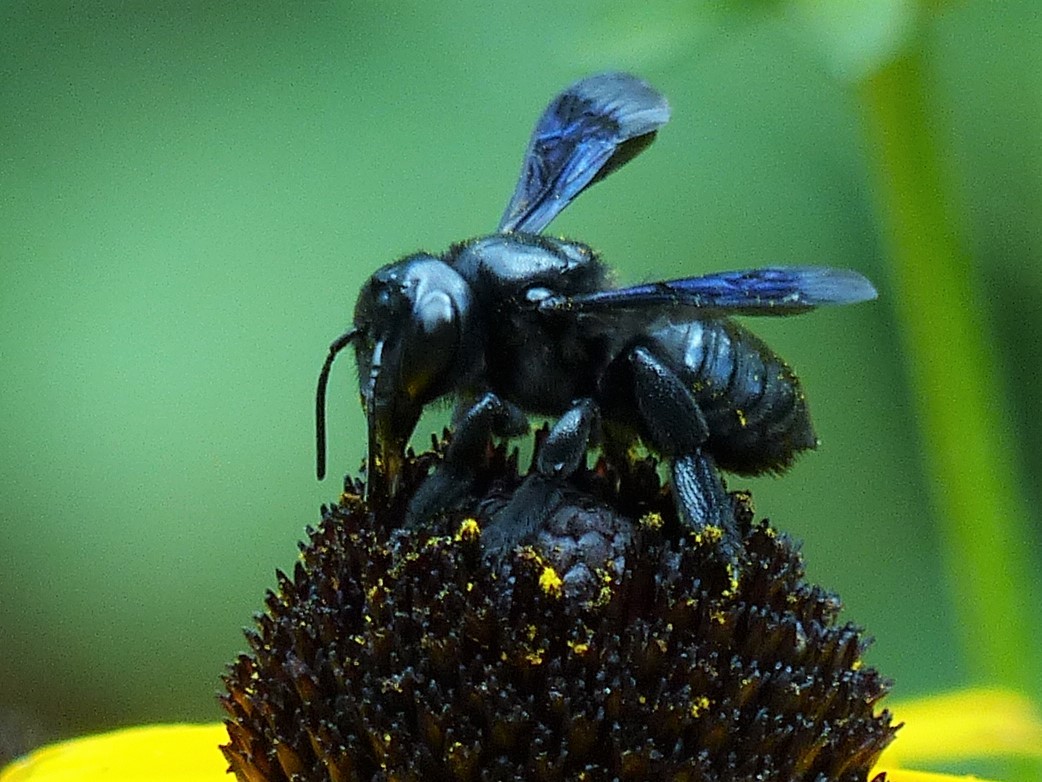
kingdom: Animalia
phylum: Arthropoda
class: Insecta
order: Hymenoptera
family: Megachilidae
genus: Megachile
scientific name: Megachile xylocopoides
